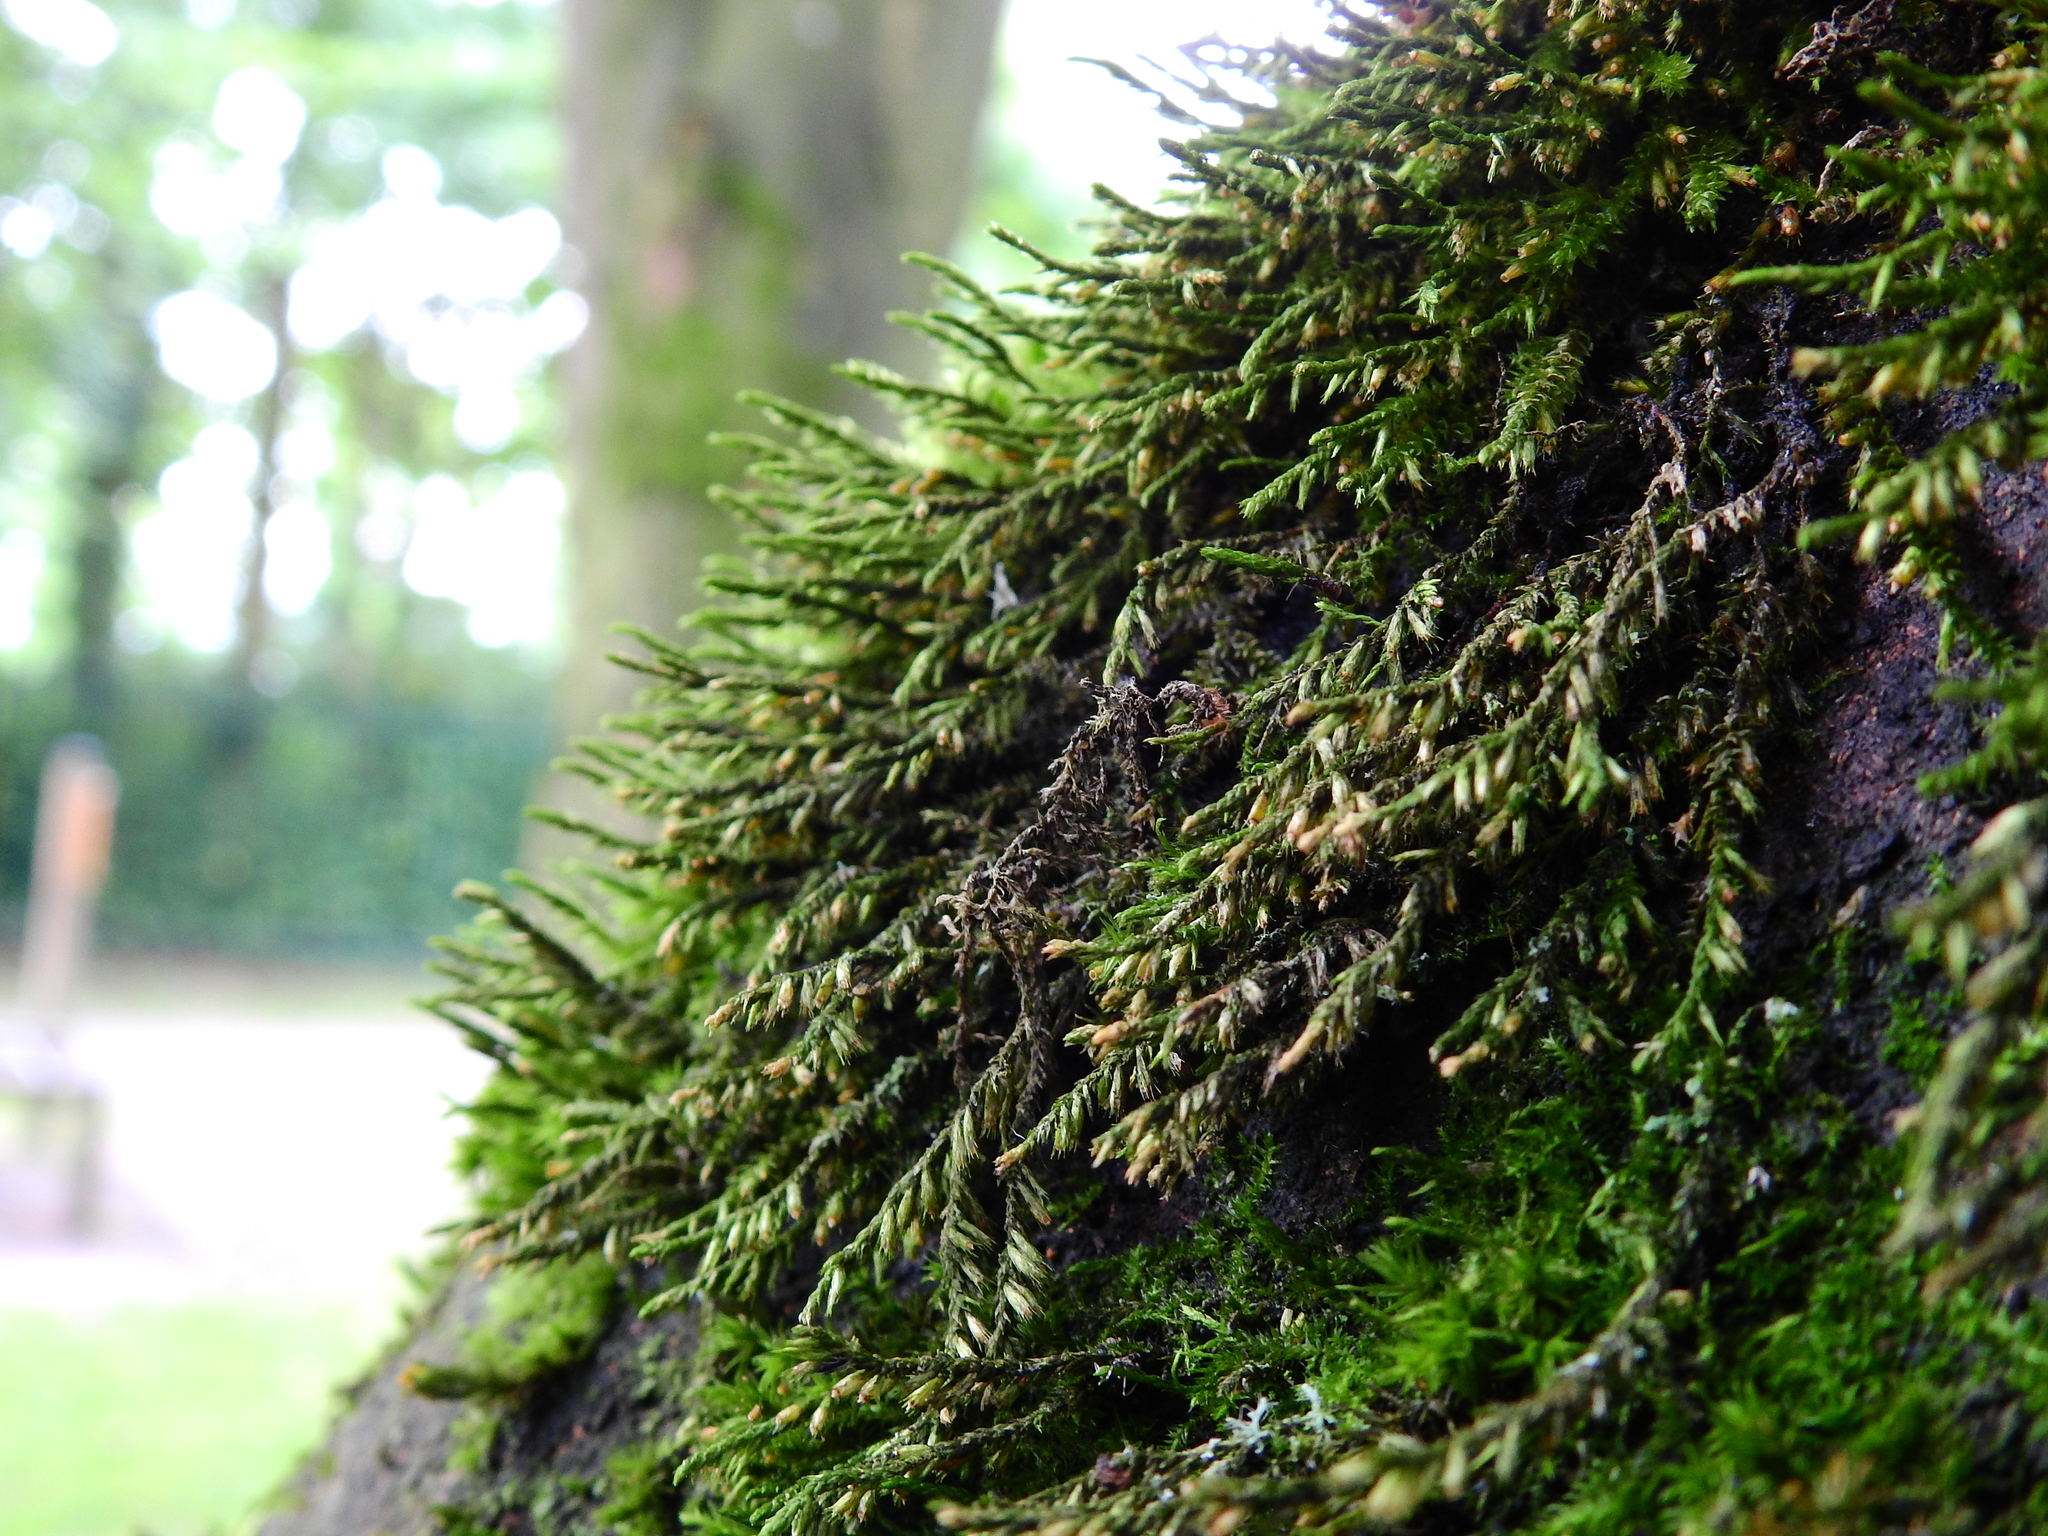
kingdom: Plantae
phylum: Bryophyta
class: Bryopsida
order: Hypnales
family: Cryphaeaceae
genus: Cryphaea
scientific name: Cryphaea heteromalla
